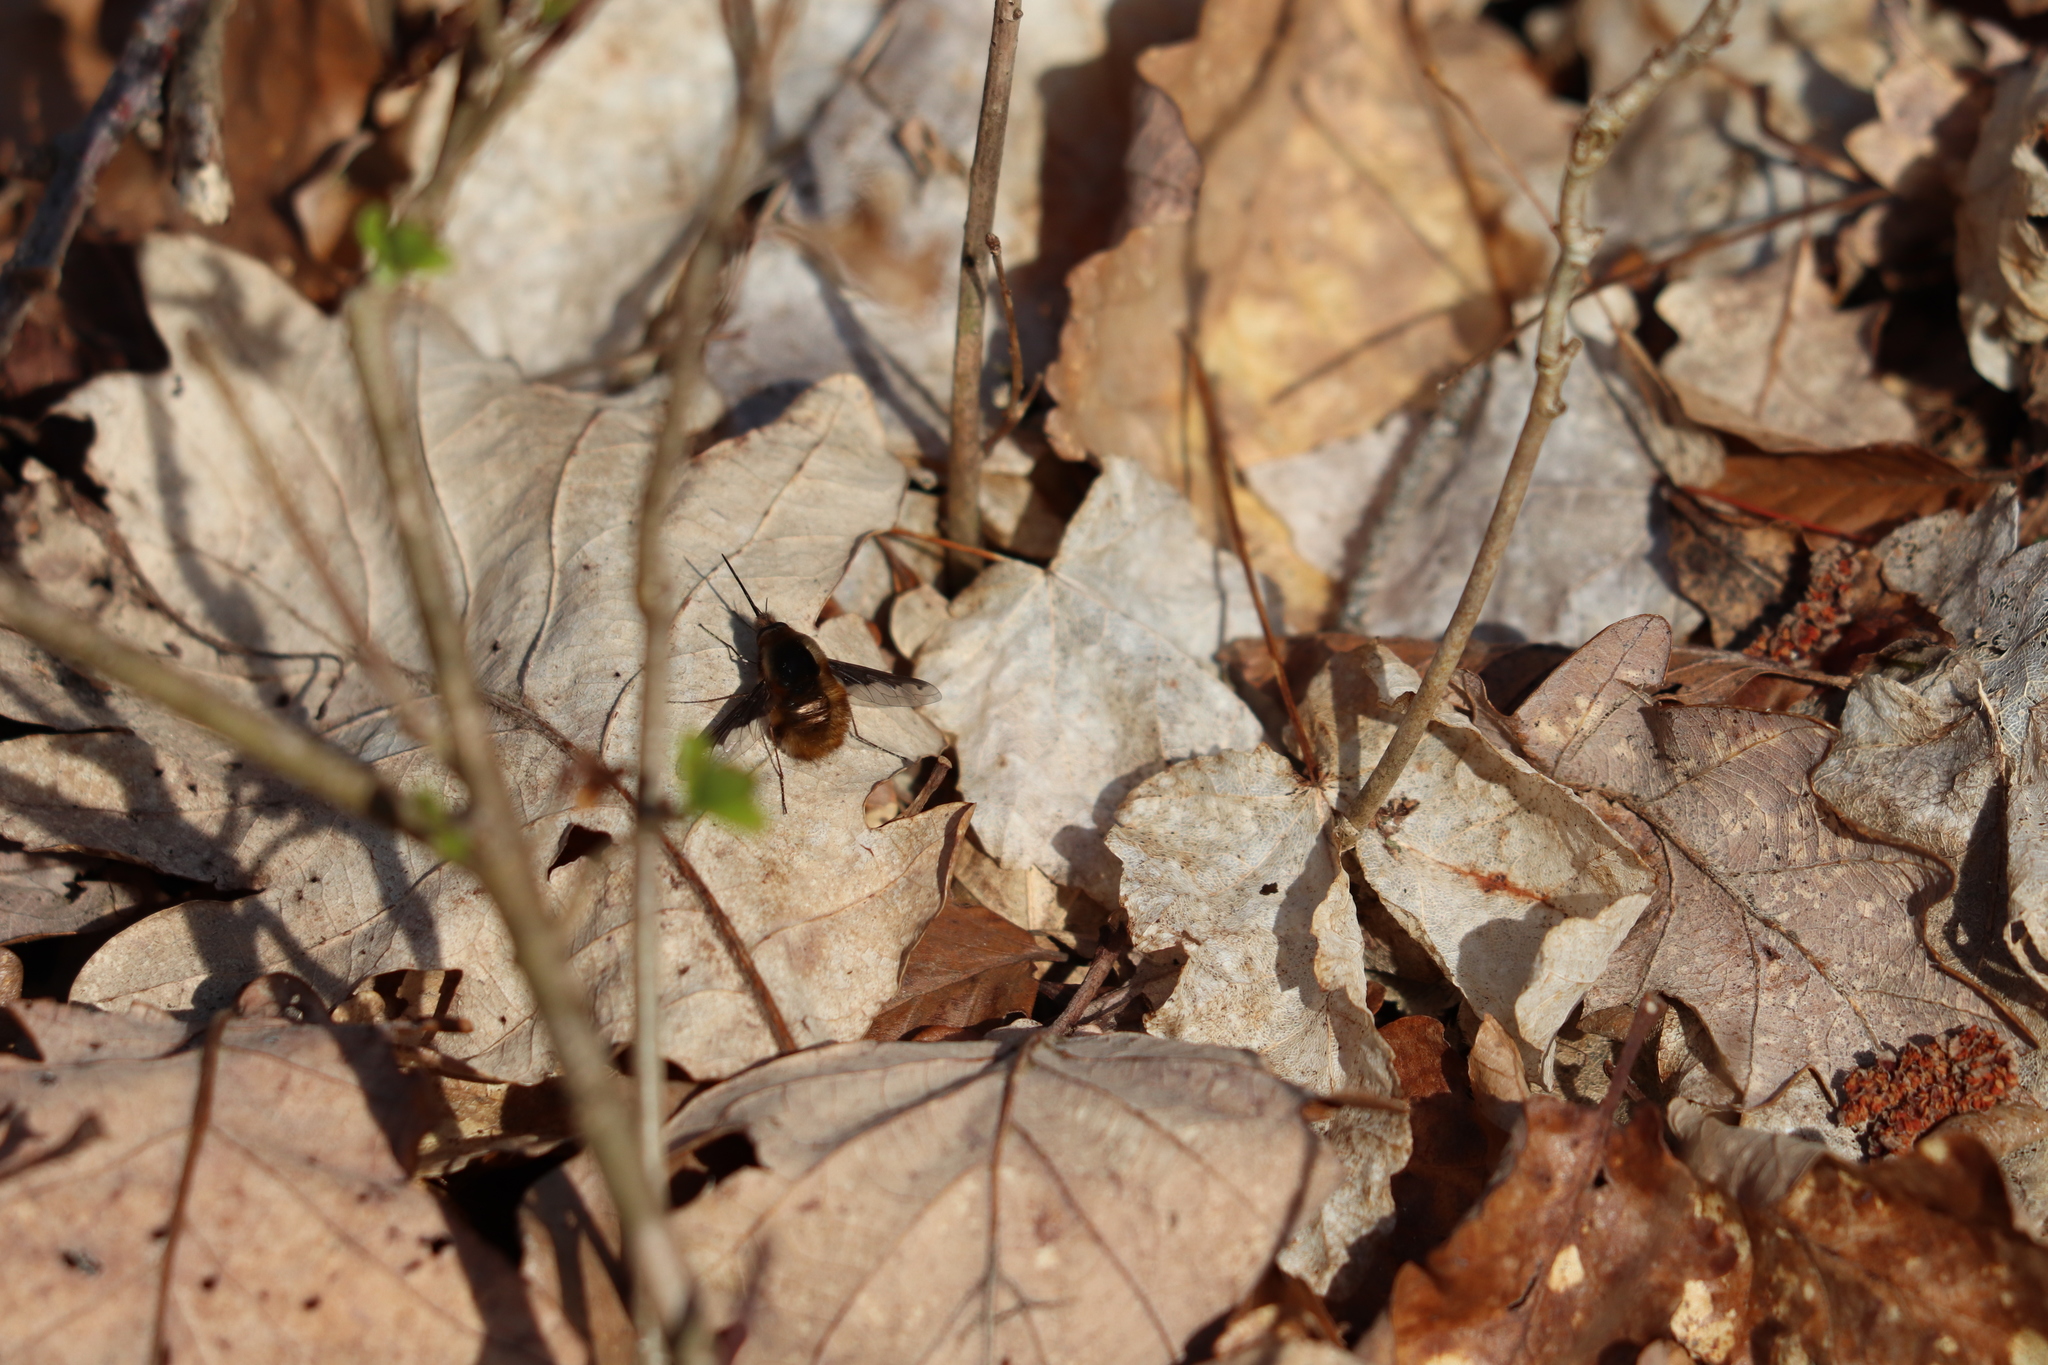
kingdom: Animalia
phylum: Arthropoda
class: Insecta
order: Diptera
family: Bombyliidae
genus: Bombylius
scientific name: Bombylius major
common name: Bee fly
